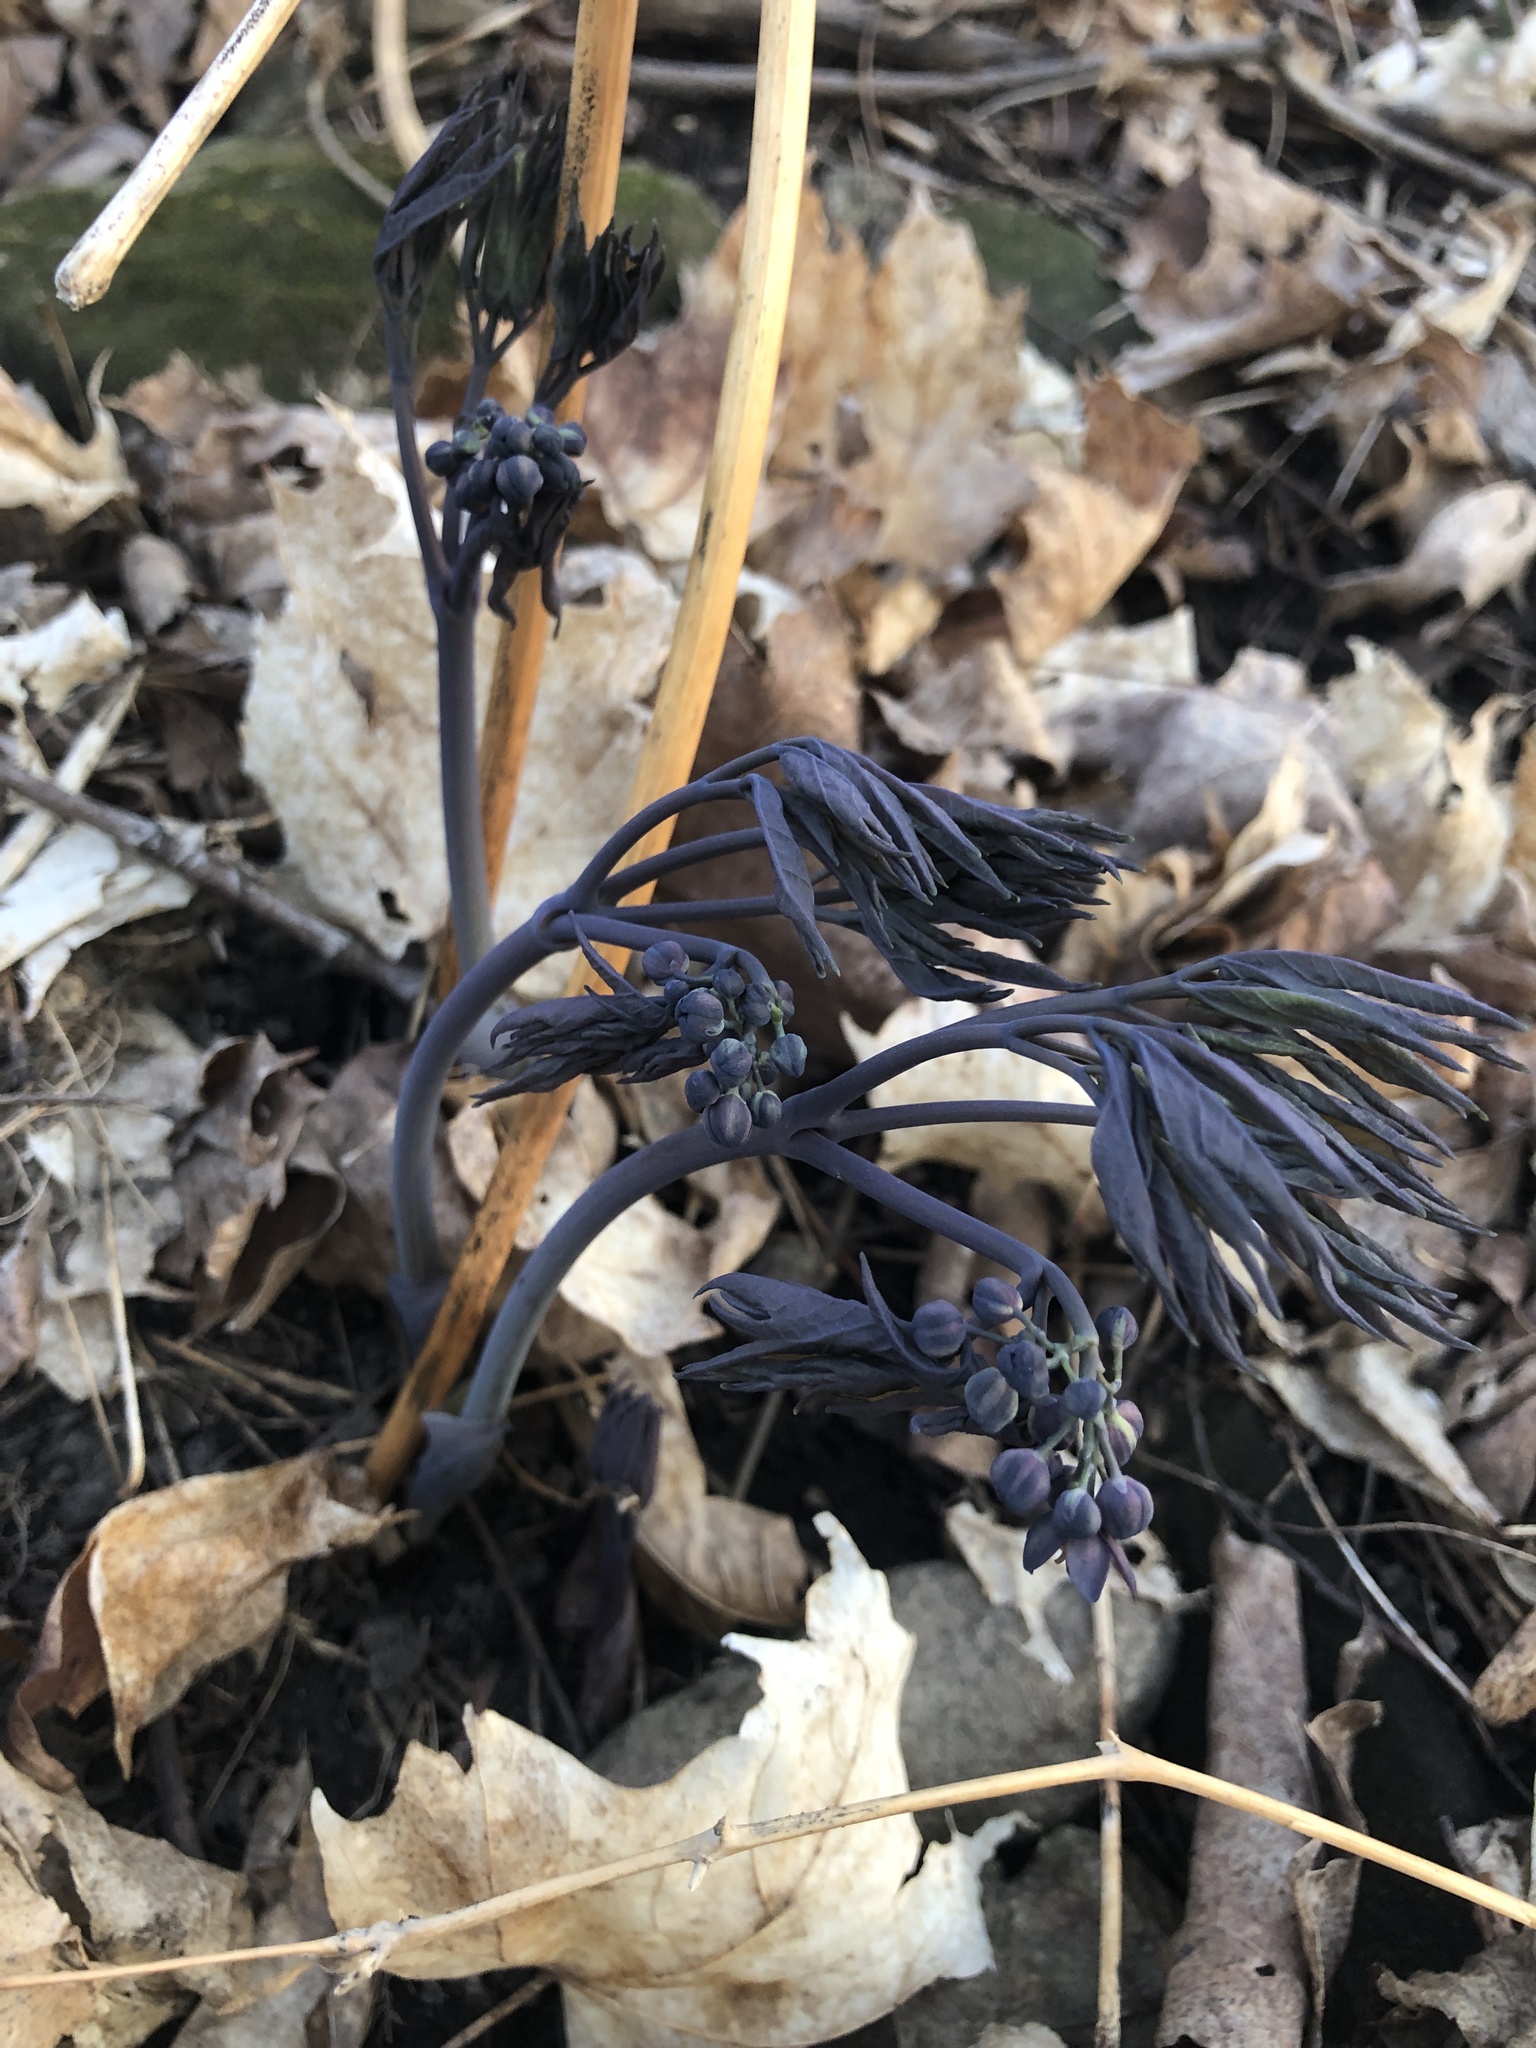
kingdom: Plantae
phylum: Tracheophyta
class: Magnoliopsida
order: Ranunculales
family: Berberidaceae
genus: Caulophyllum
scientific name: Caulophyllum giganteum
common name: Blue cohosh
